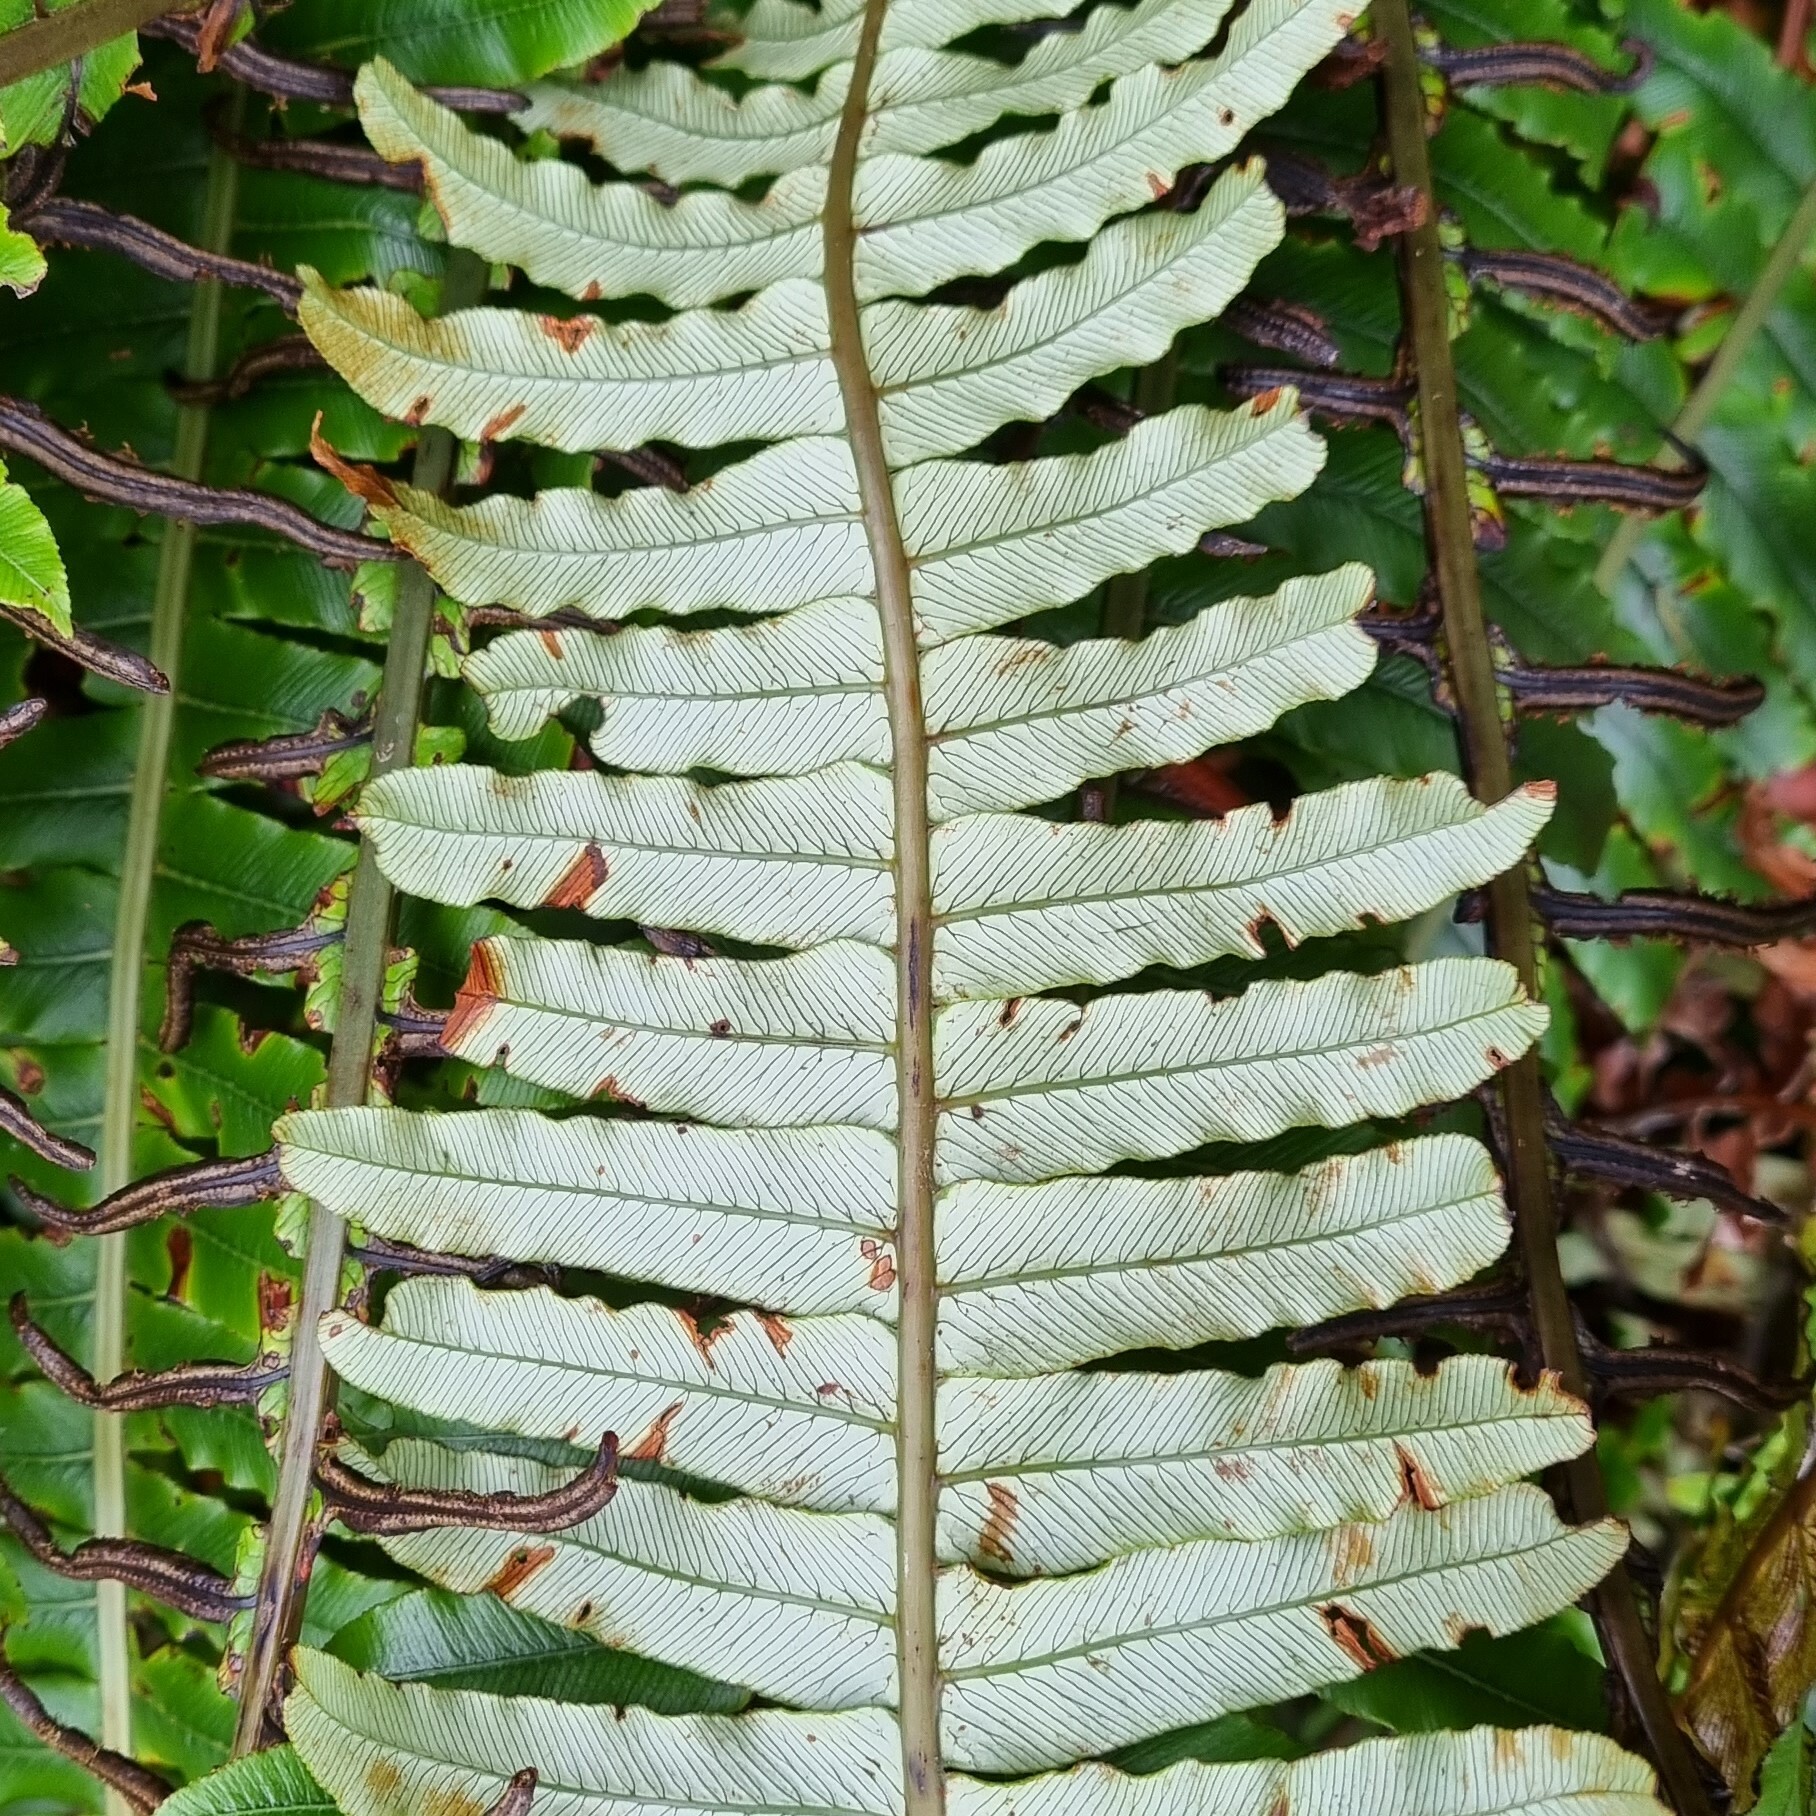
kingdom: Plantae
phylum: Tracheophyta
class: Polypodiopsida
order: Polypodiales
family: Blechnaceae
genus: Lomaria
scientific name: Lomaria discolor
